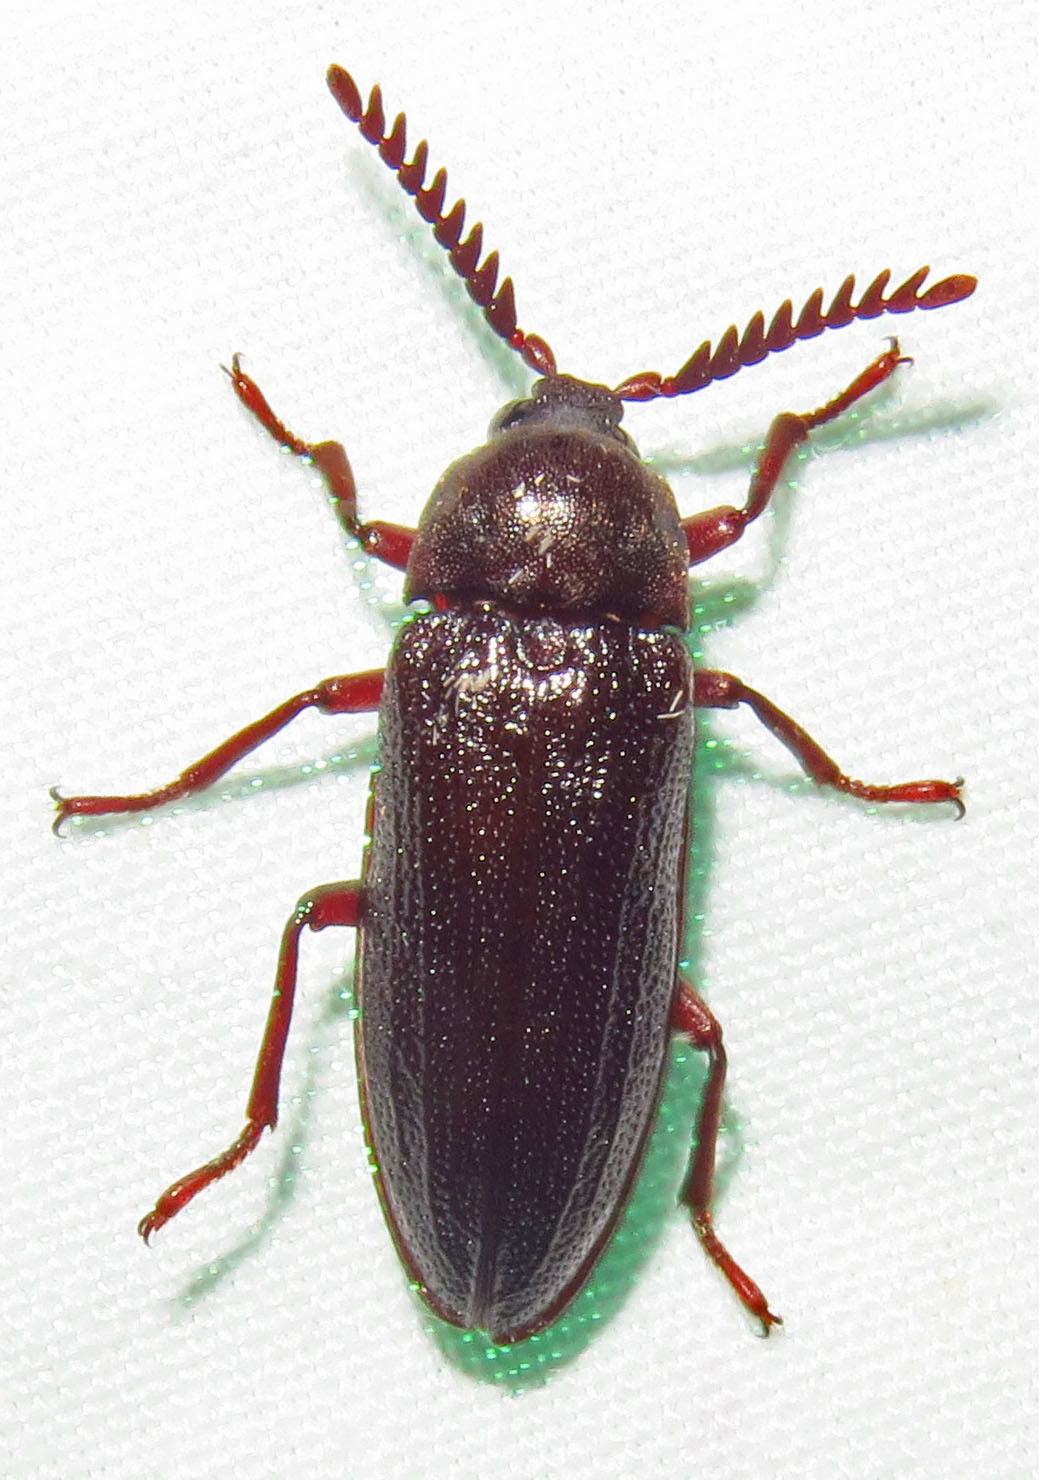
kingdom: Animalia
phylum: Arthropoda
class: Insecta
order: Coleoptera
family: Callirhipidae
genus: Zenoa
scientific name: Zenoa picea
